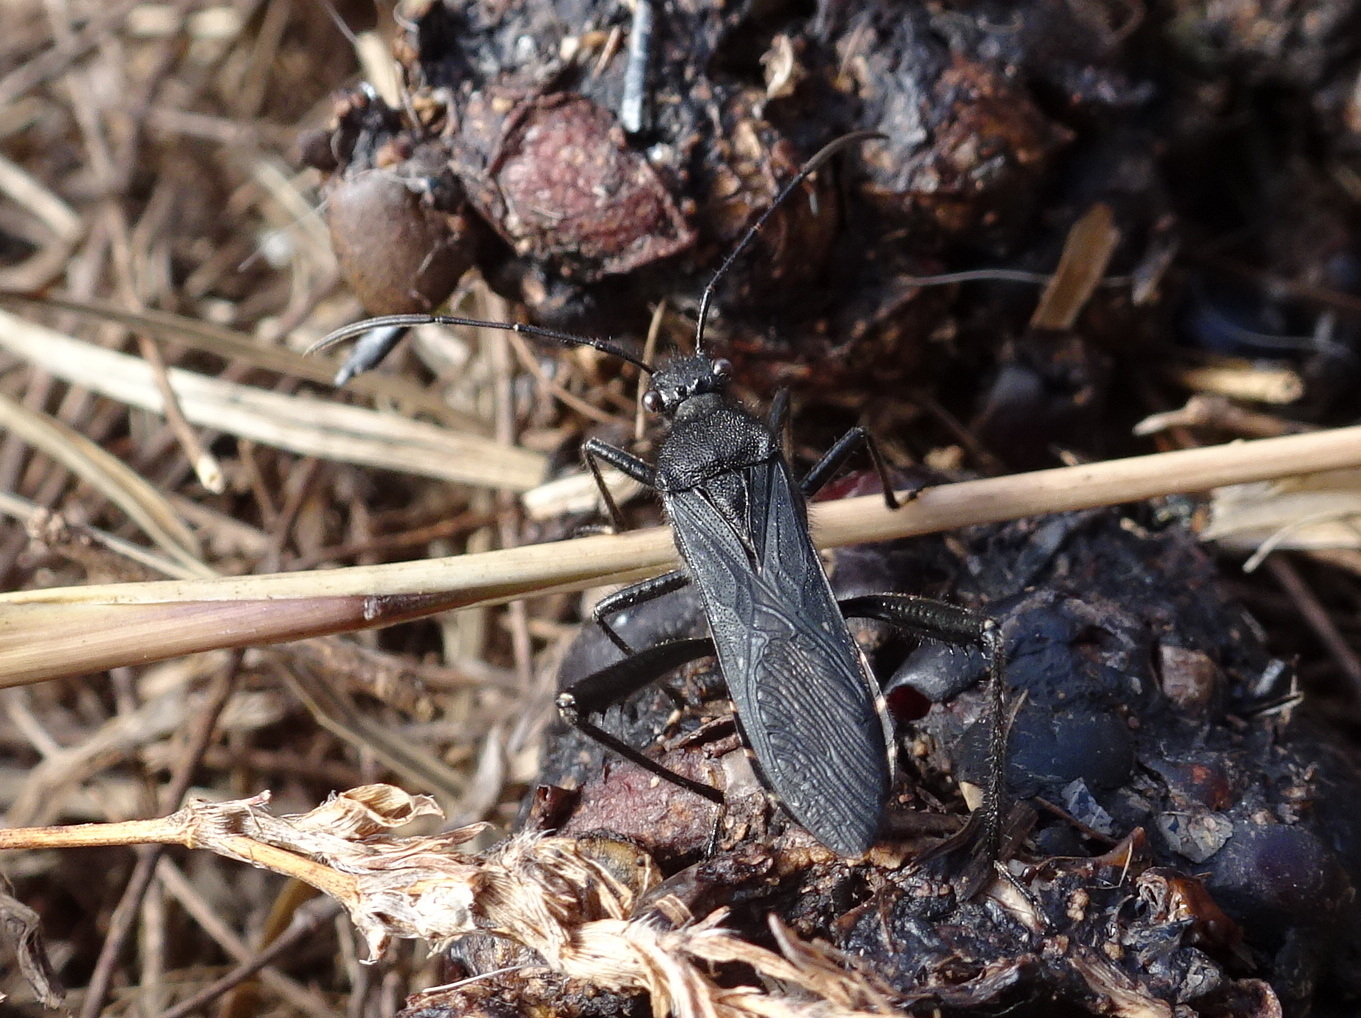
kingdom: Animalia
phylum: Arthropoda
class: Insecta
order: Hemiptera
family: Alydidae
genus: Alydus
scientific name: Alydus eurinus
